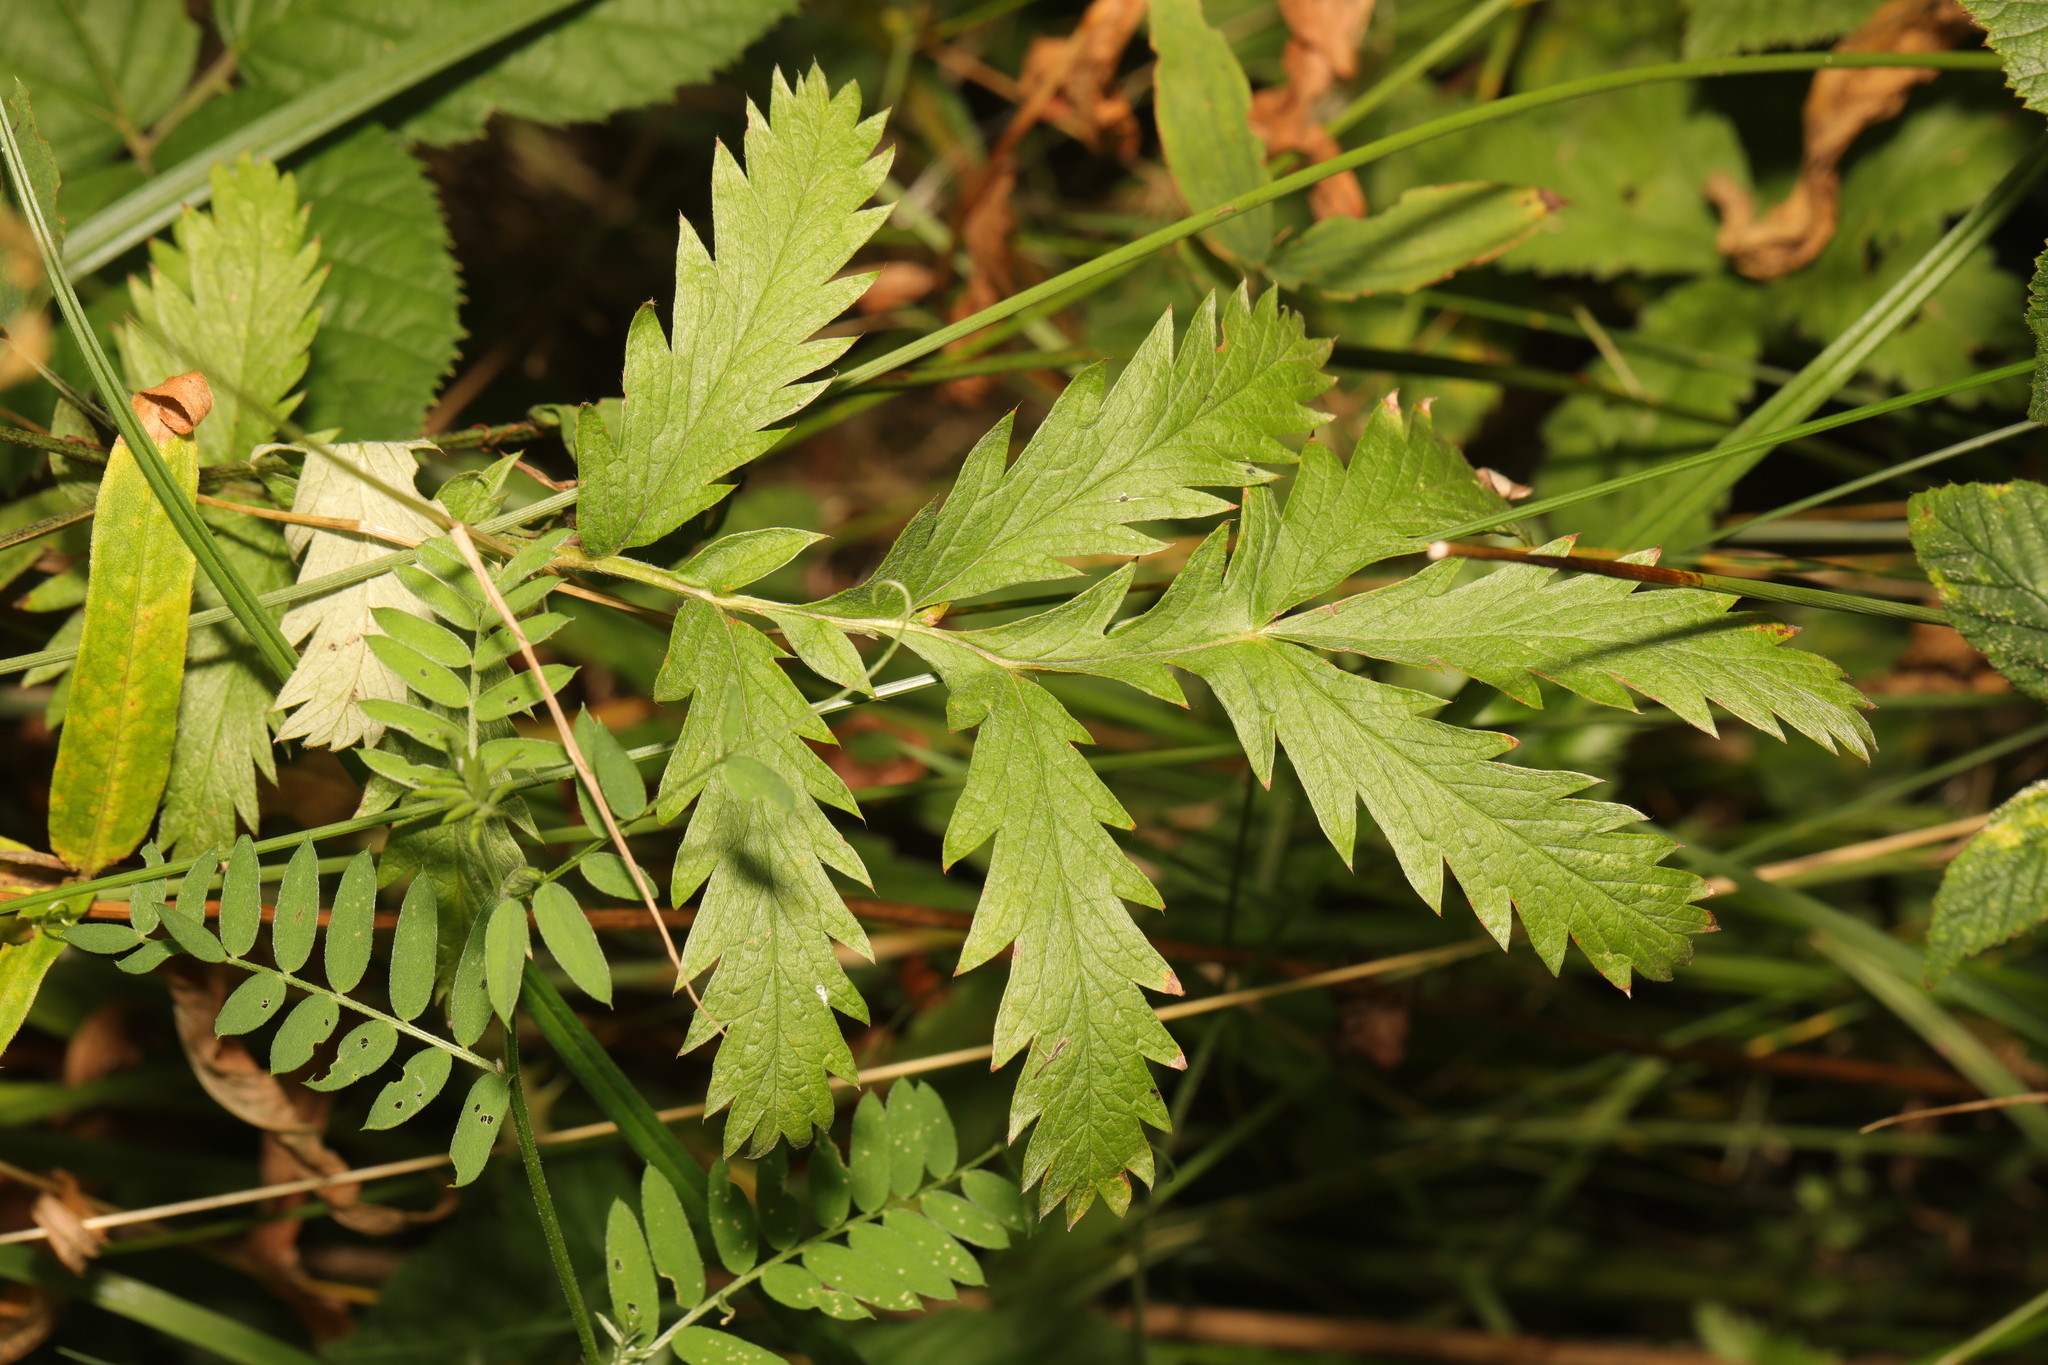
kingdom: Plantae
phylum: Tracheophyta
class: Magnoliopsida
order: Rosales
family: Rosaceae
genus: Argentina
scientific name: Argentina anserina
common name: Common silverweed
